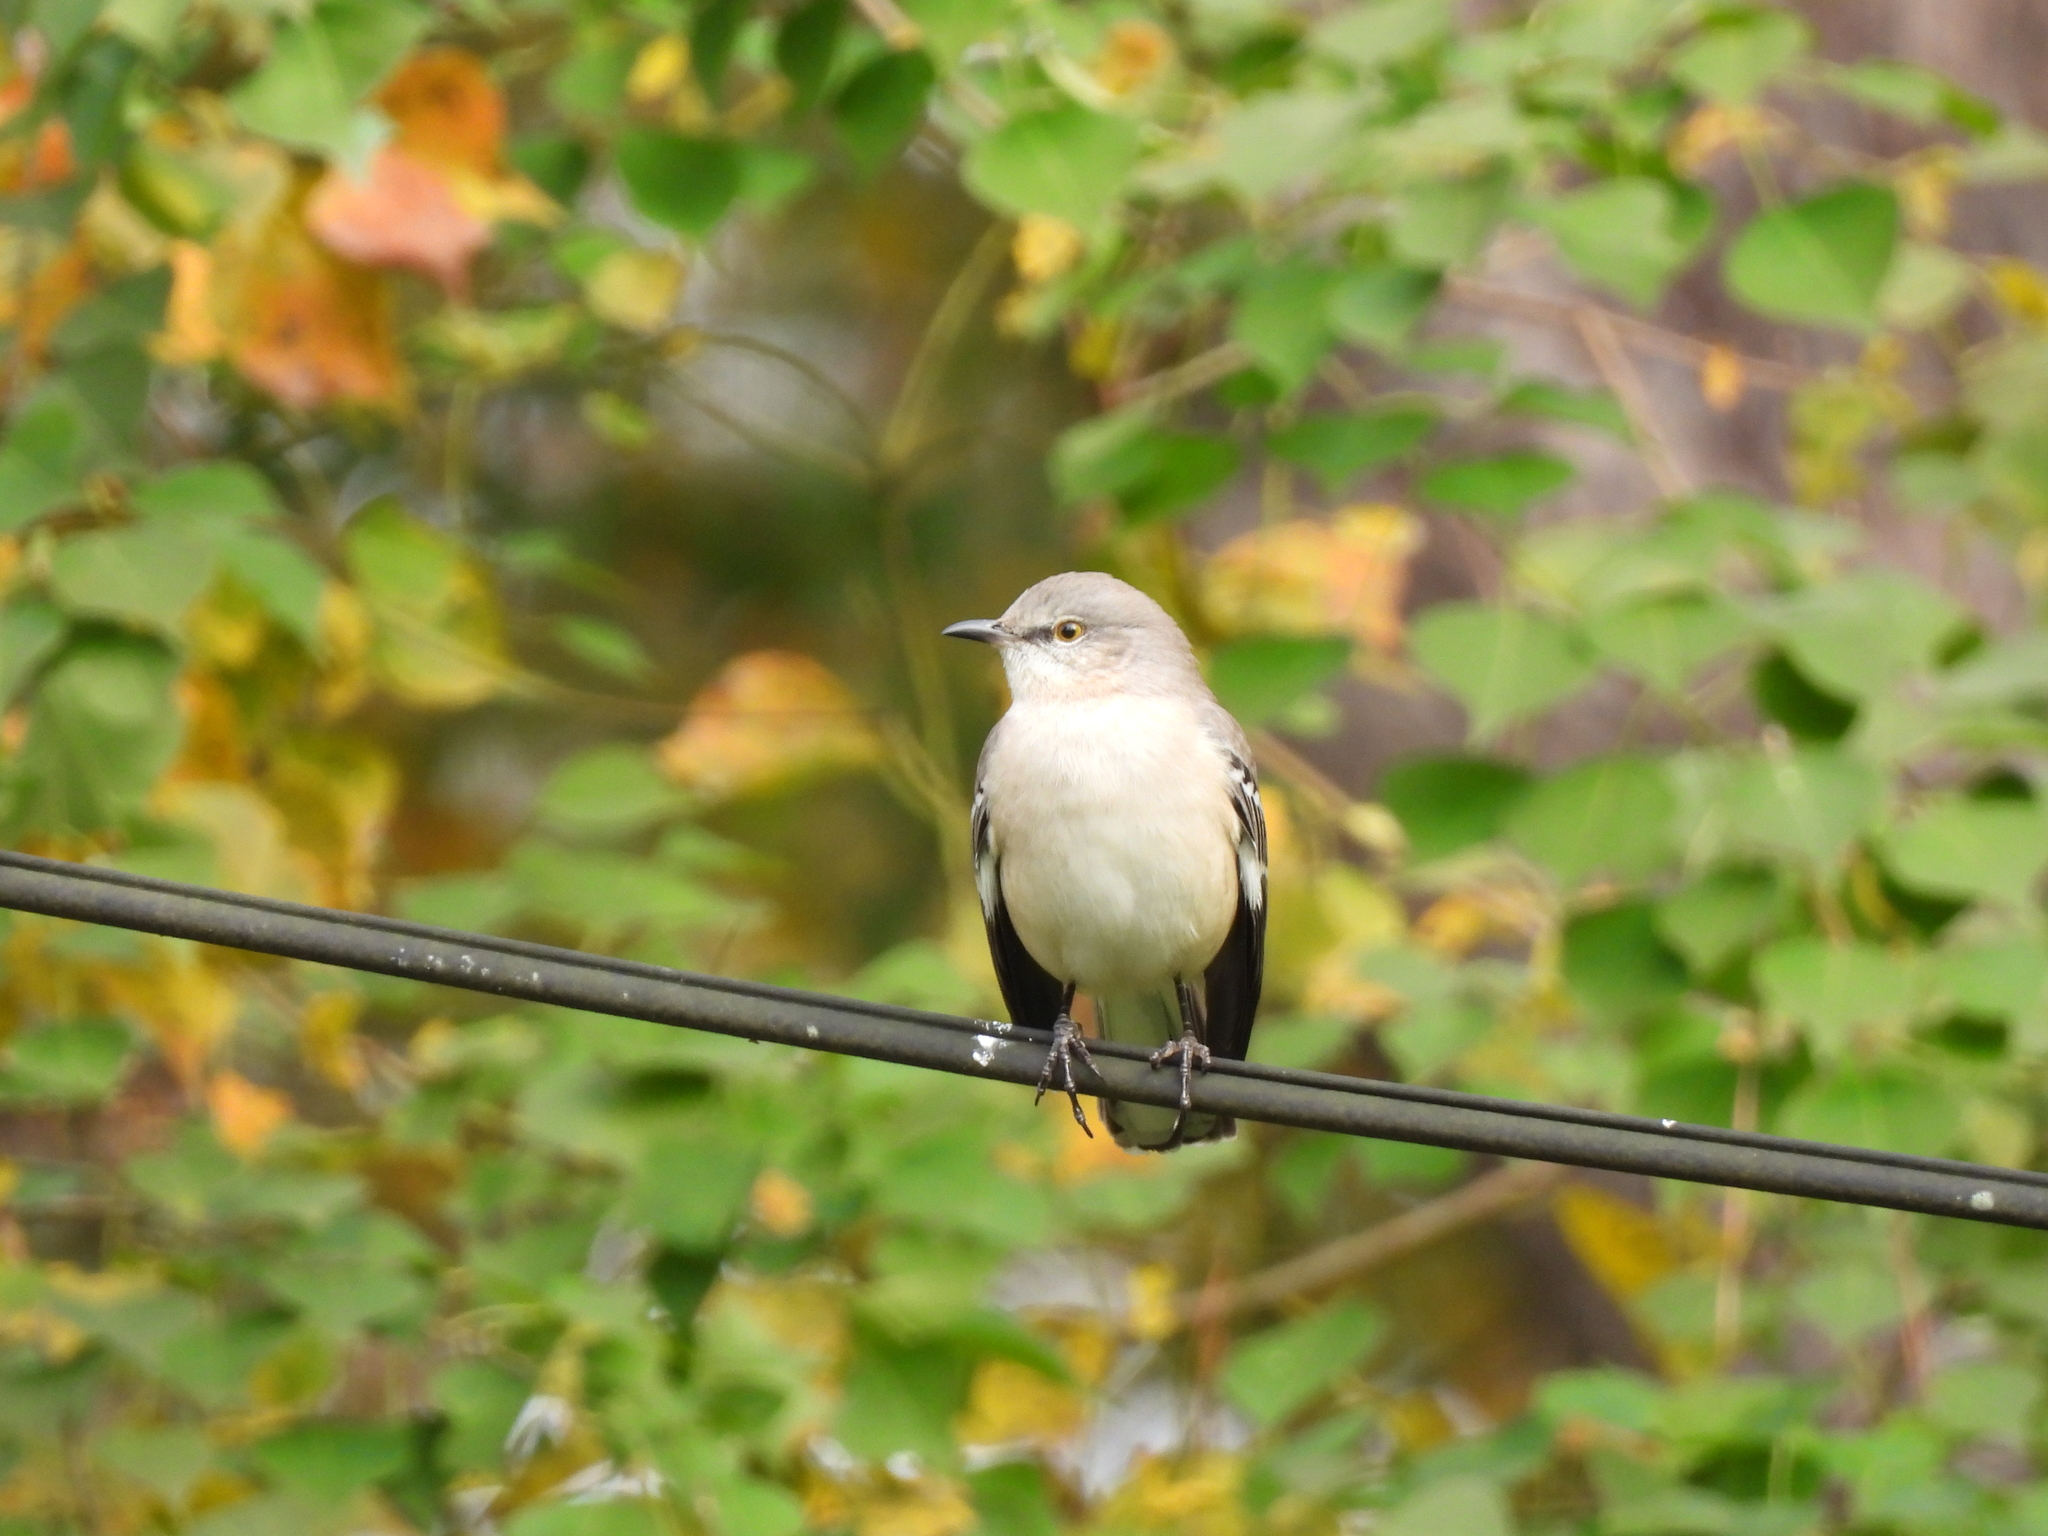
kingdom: Animalia
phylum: Chordata
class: Aves
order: Passeriformes
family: Mimidae
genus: Mimus
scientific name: Mimus polyglottos
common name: Northern mockingbird
